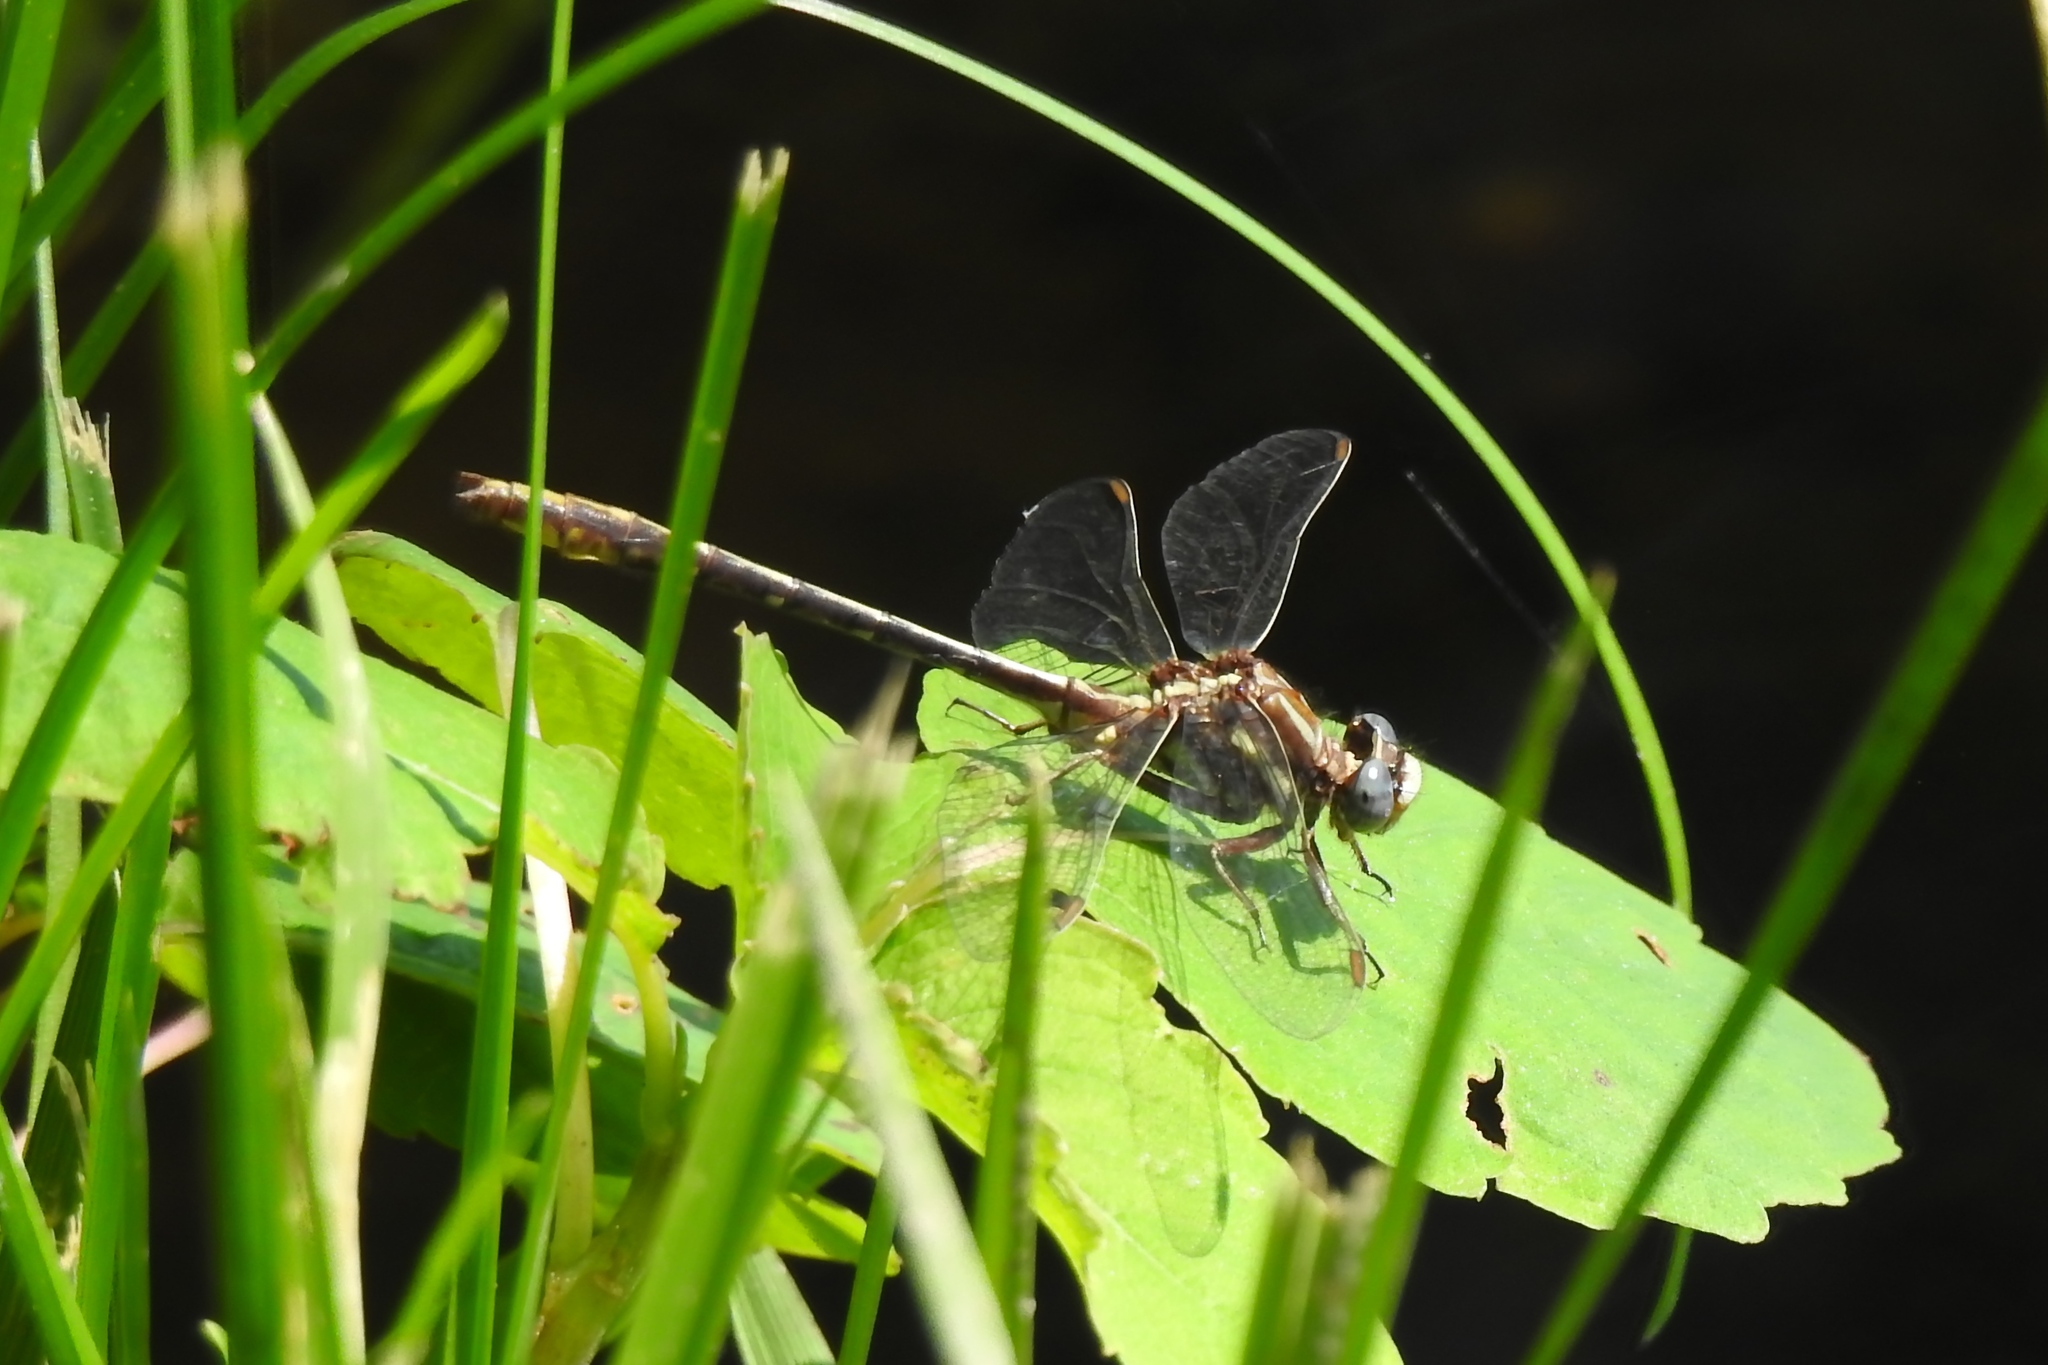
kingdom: Animalia
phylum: Arthropoda
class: Insecta
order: Odonata
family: Gomphidae
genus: Phanogomphus
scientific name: Phanogomphus exilis
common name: Lancet clubtail
